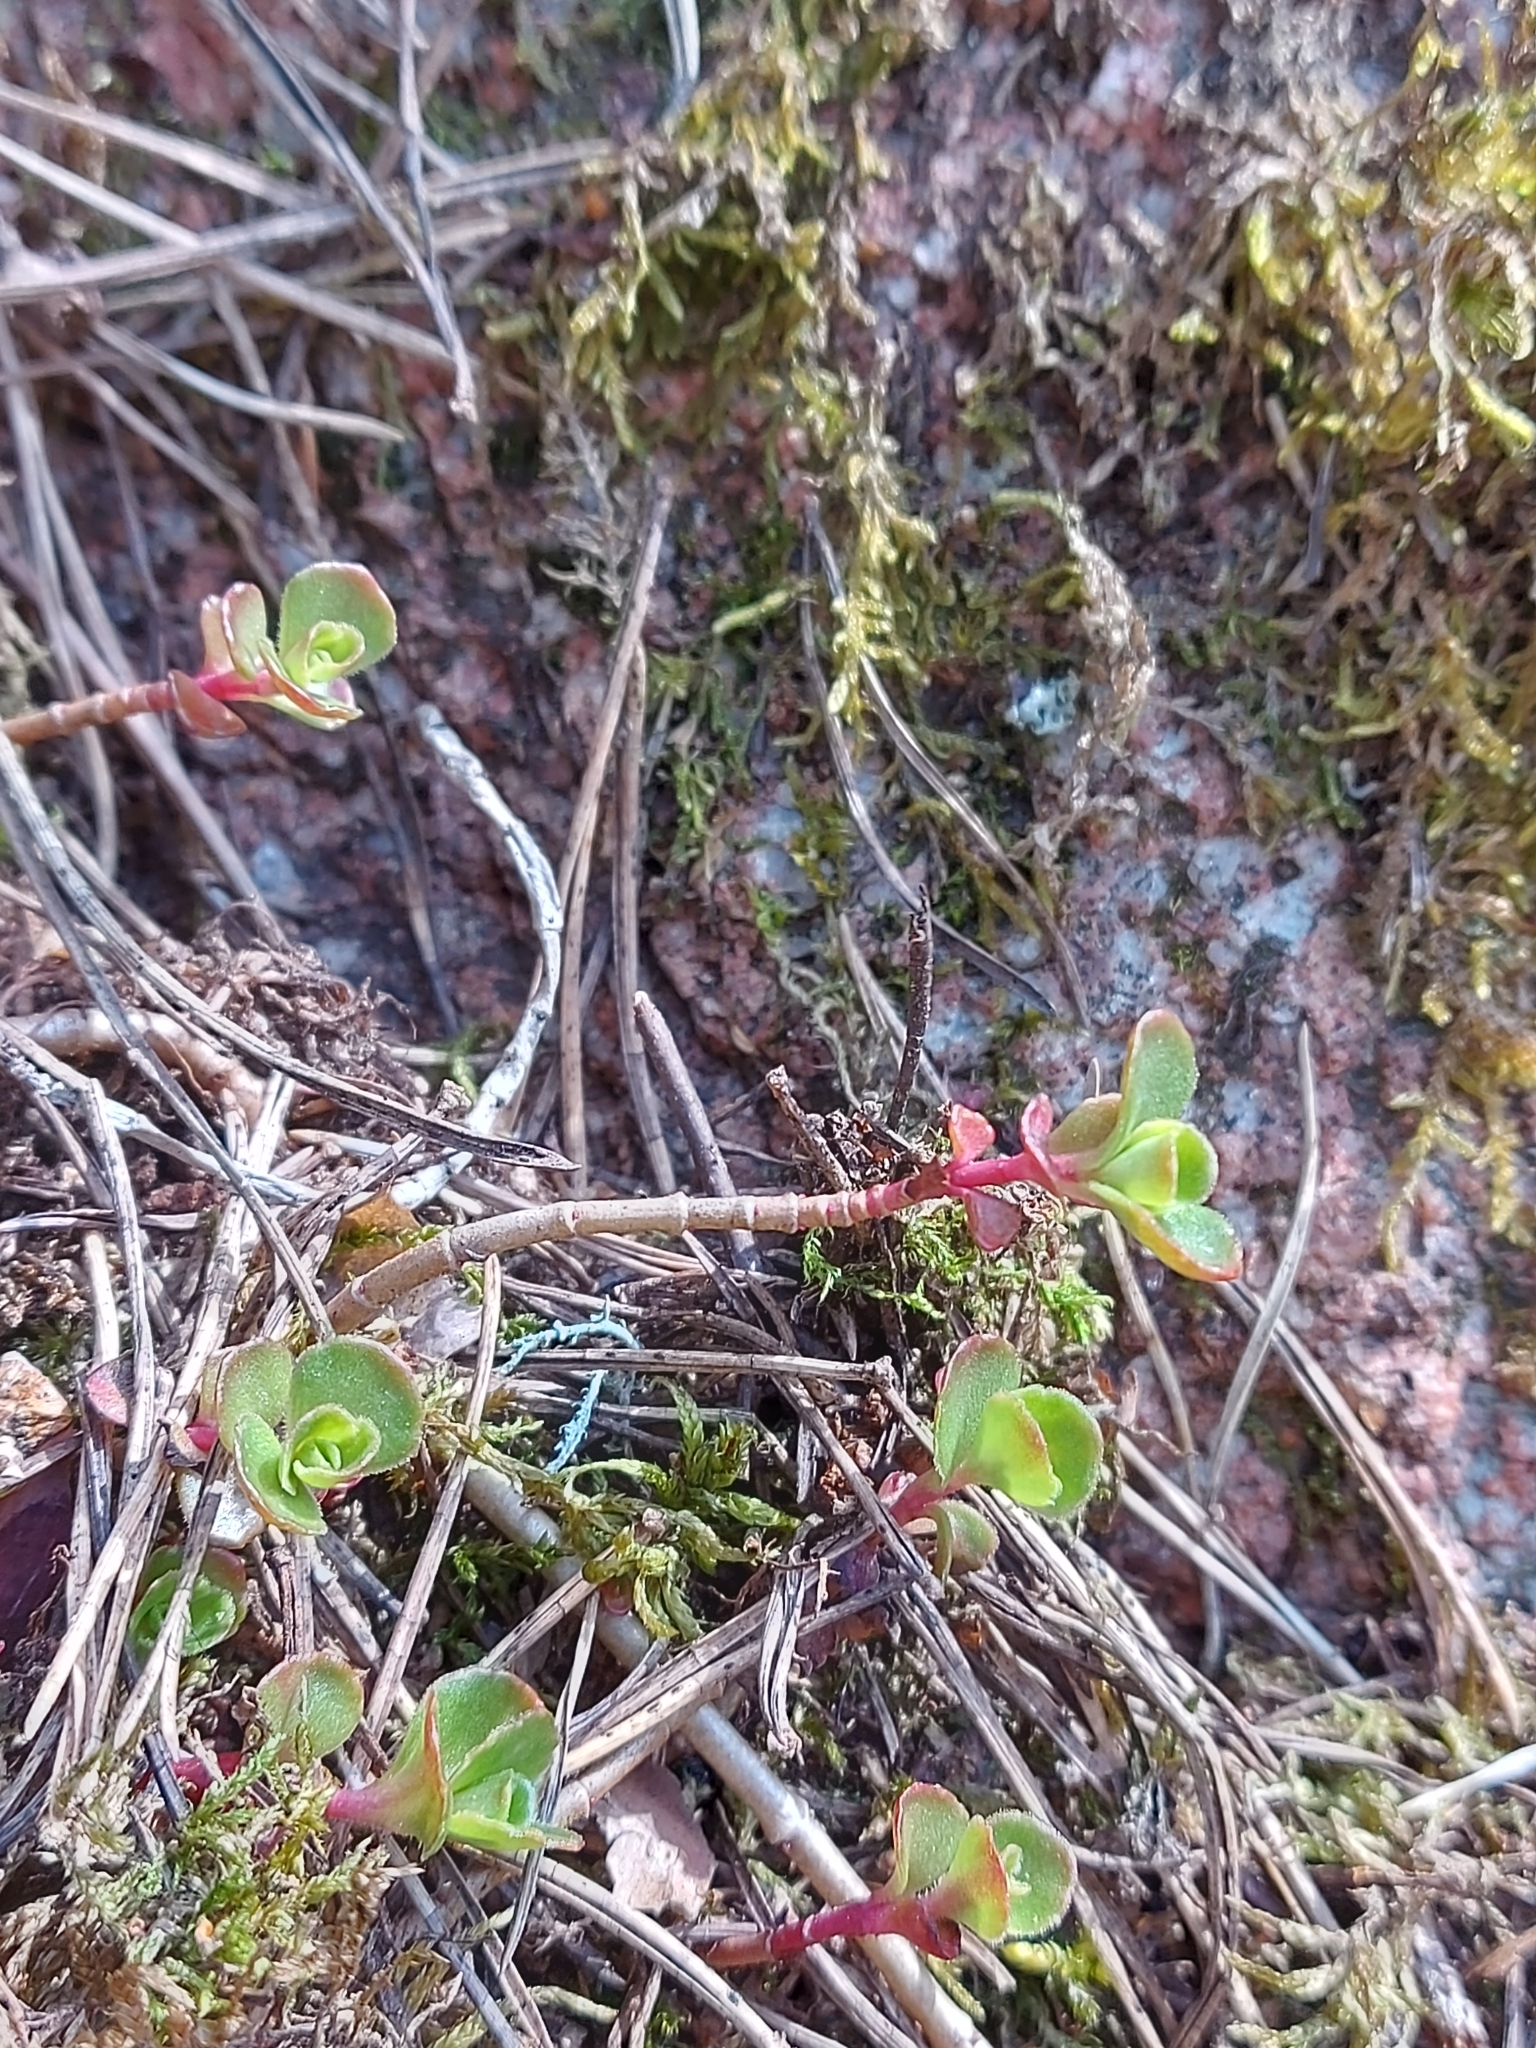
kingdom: Plantae
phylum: Tracheophyta
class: Magnoliopsida
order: Saxifragales
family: Crassulaceae
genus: Phedimus
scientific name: Phedimus spurius
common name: Caucasian stonecrop
